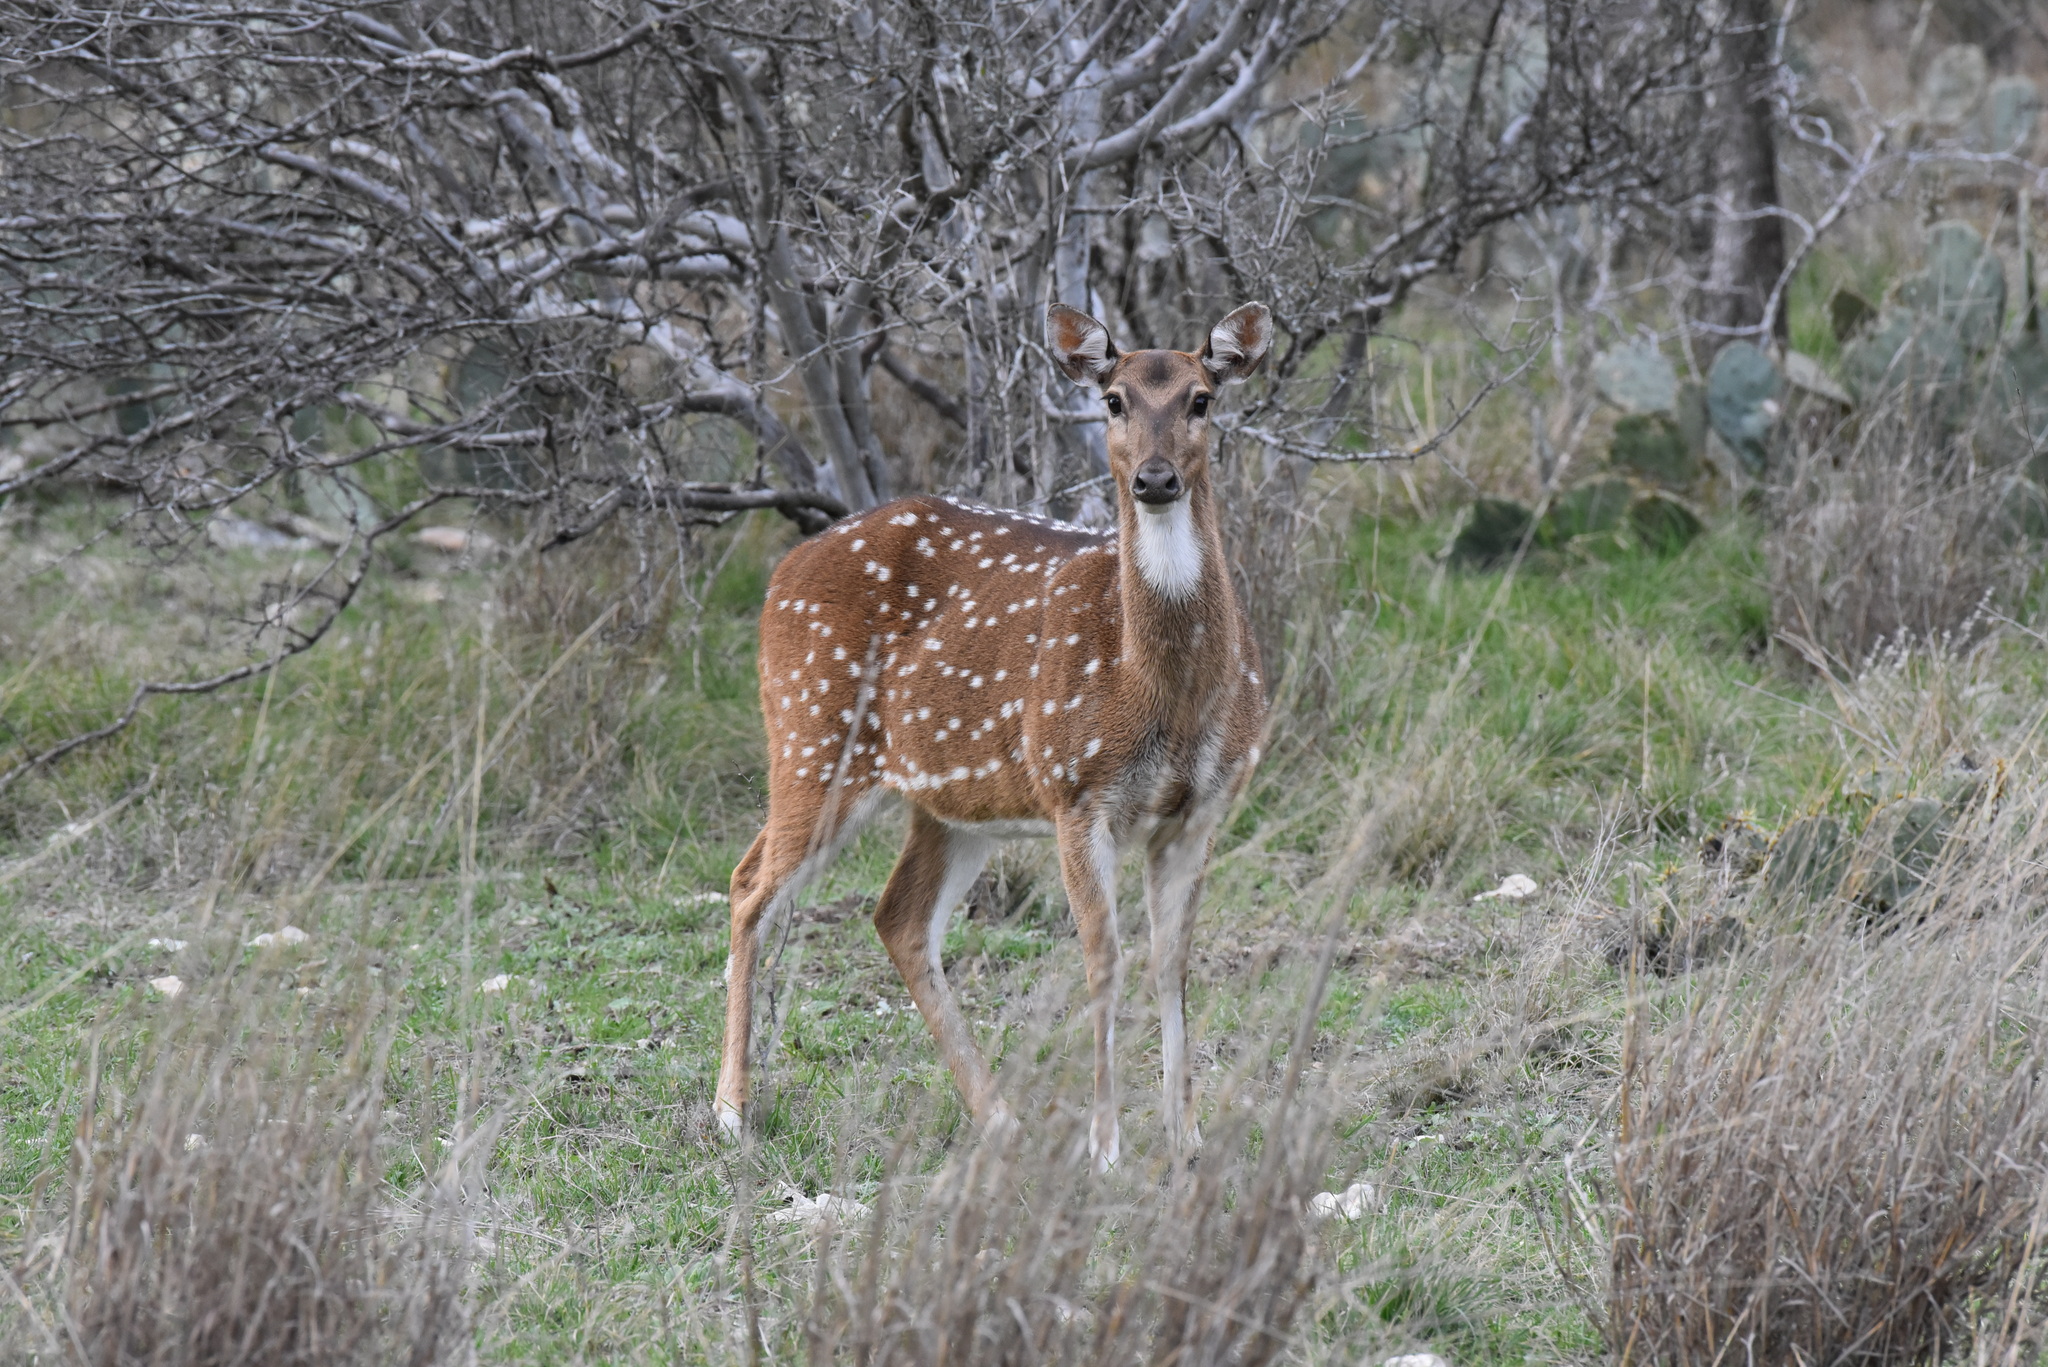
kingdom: Animalia
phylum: Chordata
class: Mammalia
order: Artiodactyla
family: Cervidae
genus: Axis
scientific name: Axis axis
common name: Chital
